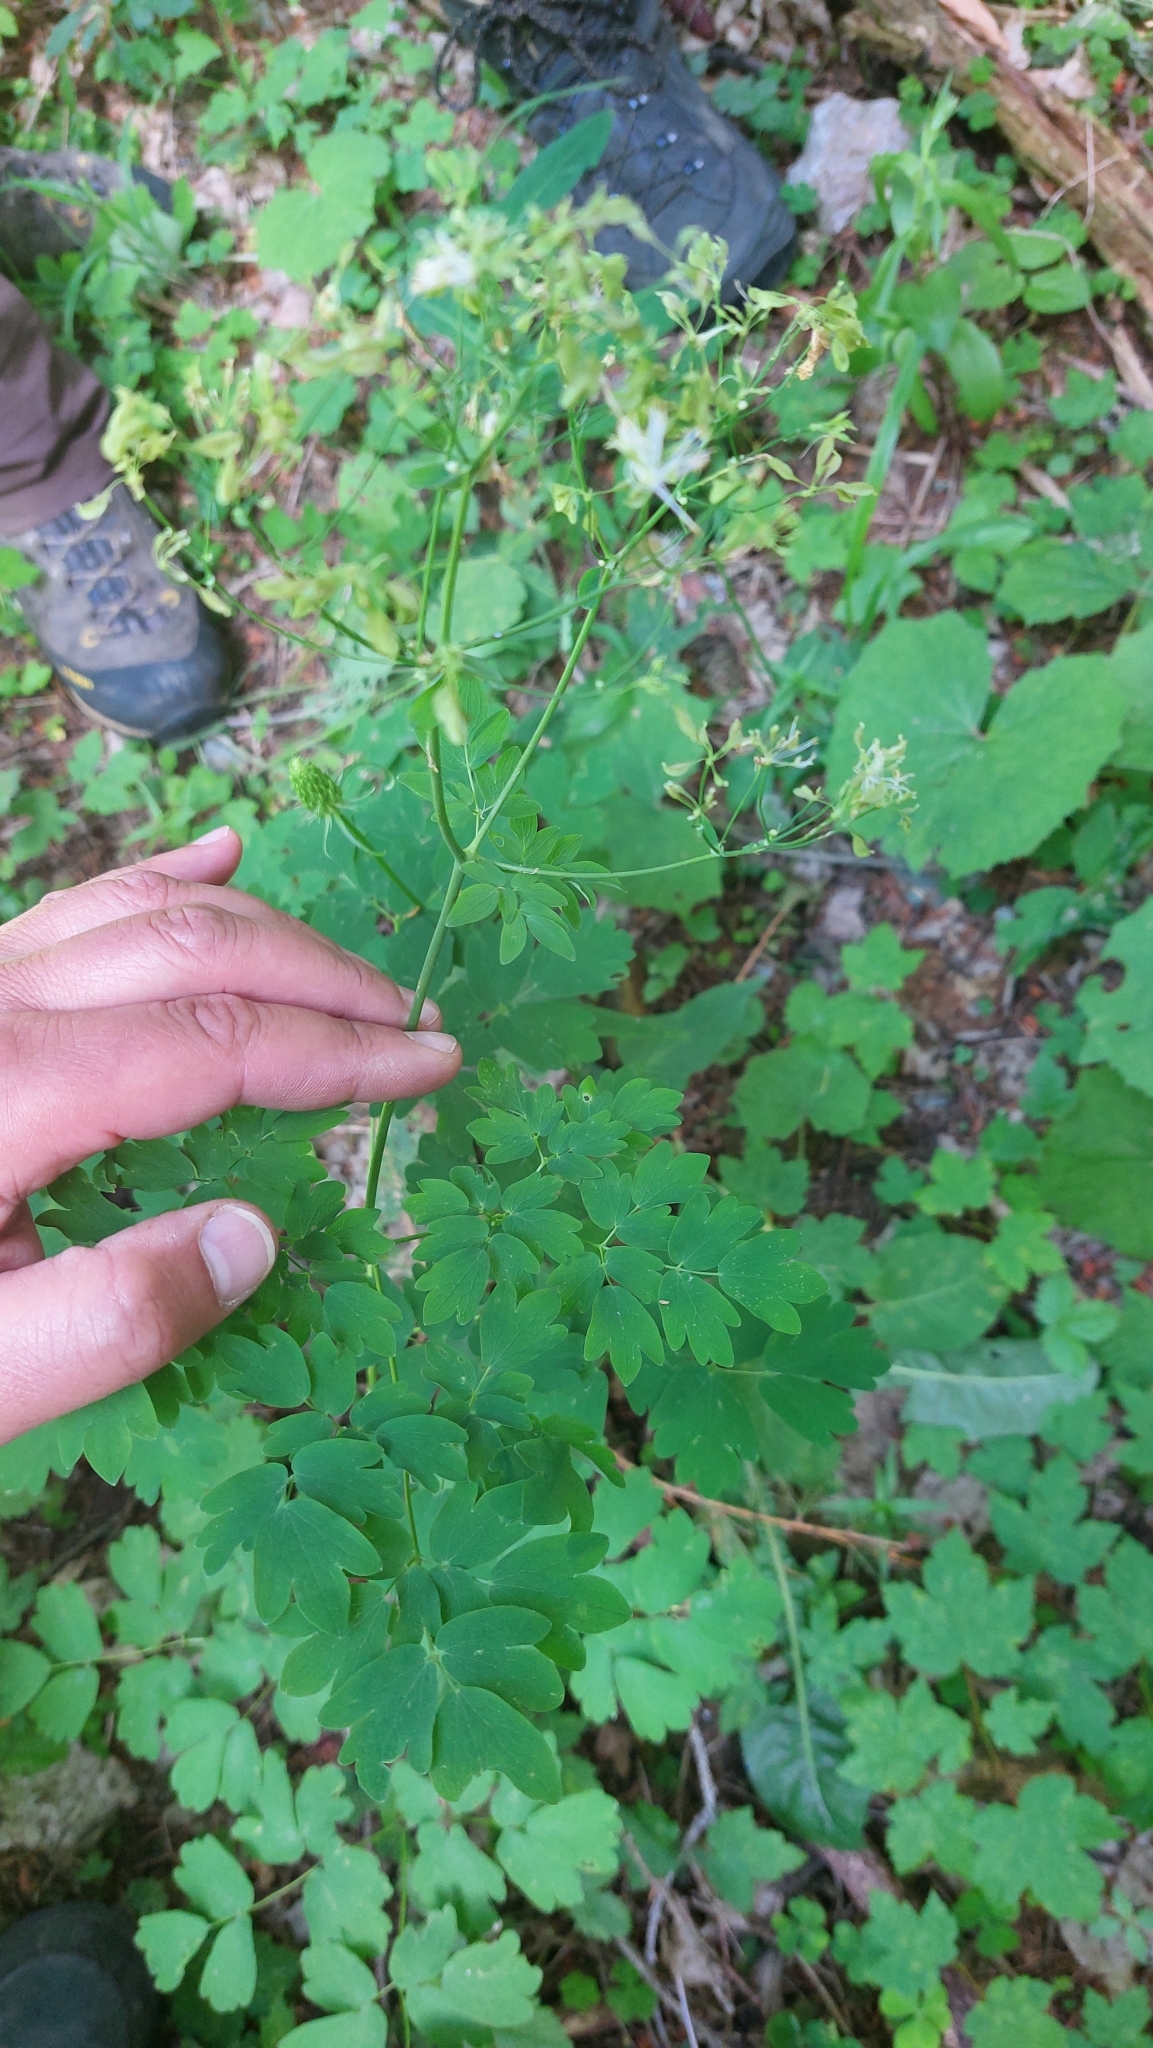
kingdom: Plantae
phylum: Tracheophyta
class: Magnoliopsida
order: Ranunculales
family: Ranunculaceae
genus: Thalictrum
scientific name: Thalictrum aquilegiifolium
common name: French meadow-rue
